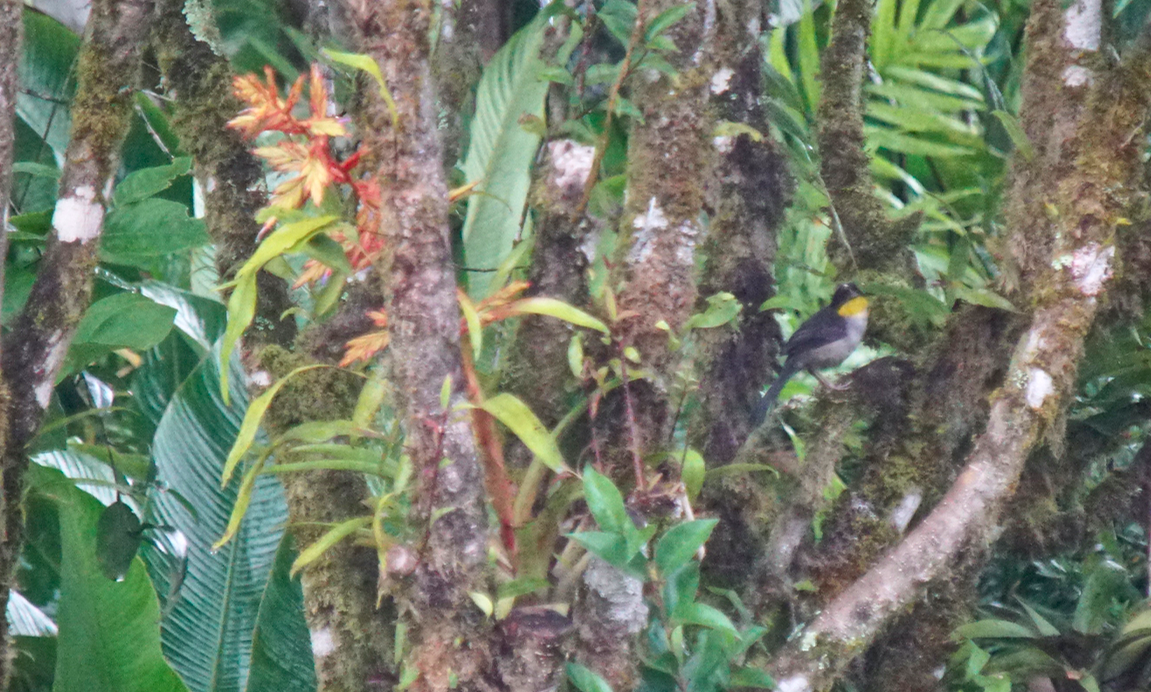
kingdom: Animalia
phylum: Chordata
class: Aves
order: Passeriformes
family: Passerellidae
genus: Atlapetes
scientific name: Atlapetes albinucha
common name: White-naped brush-finch
